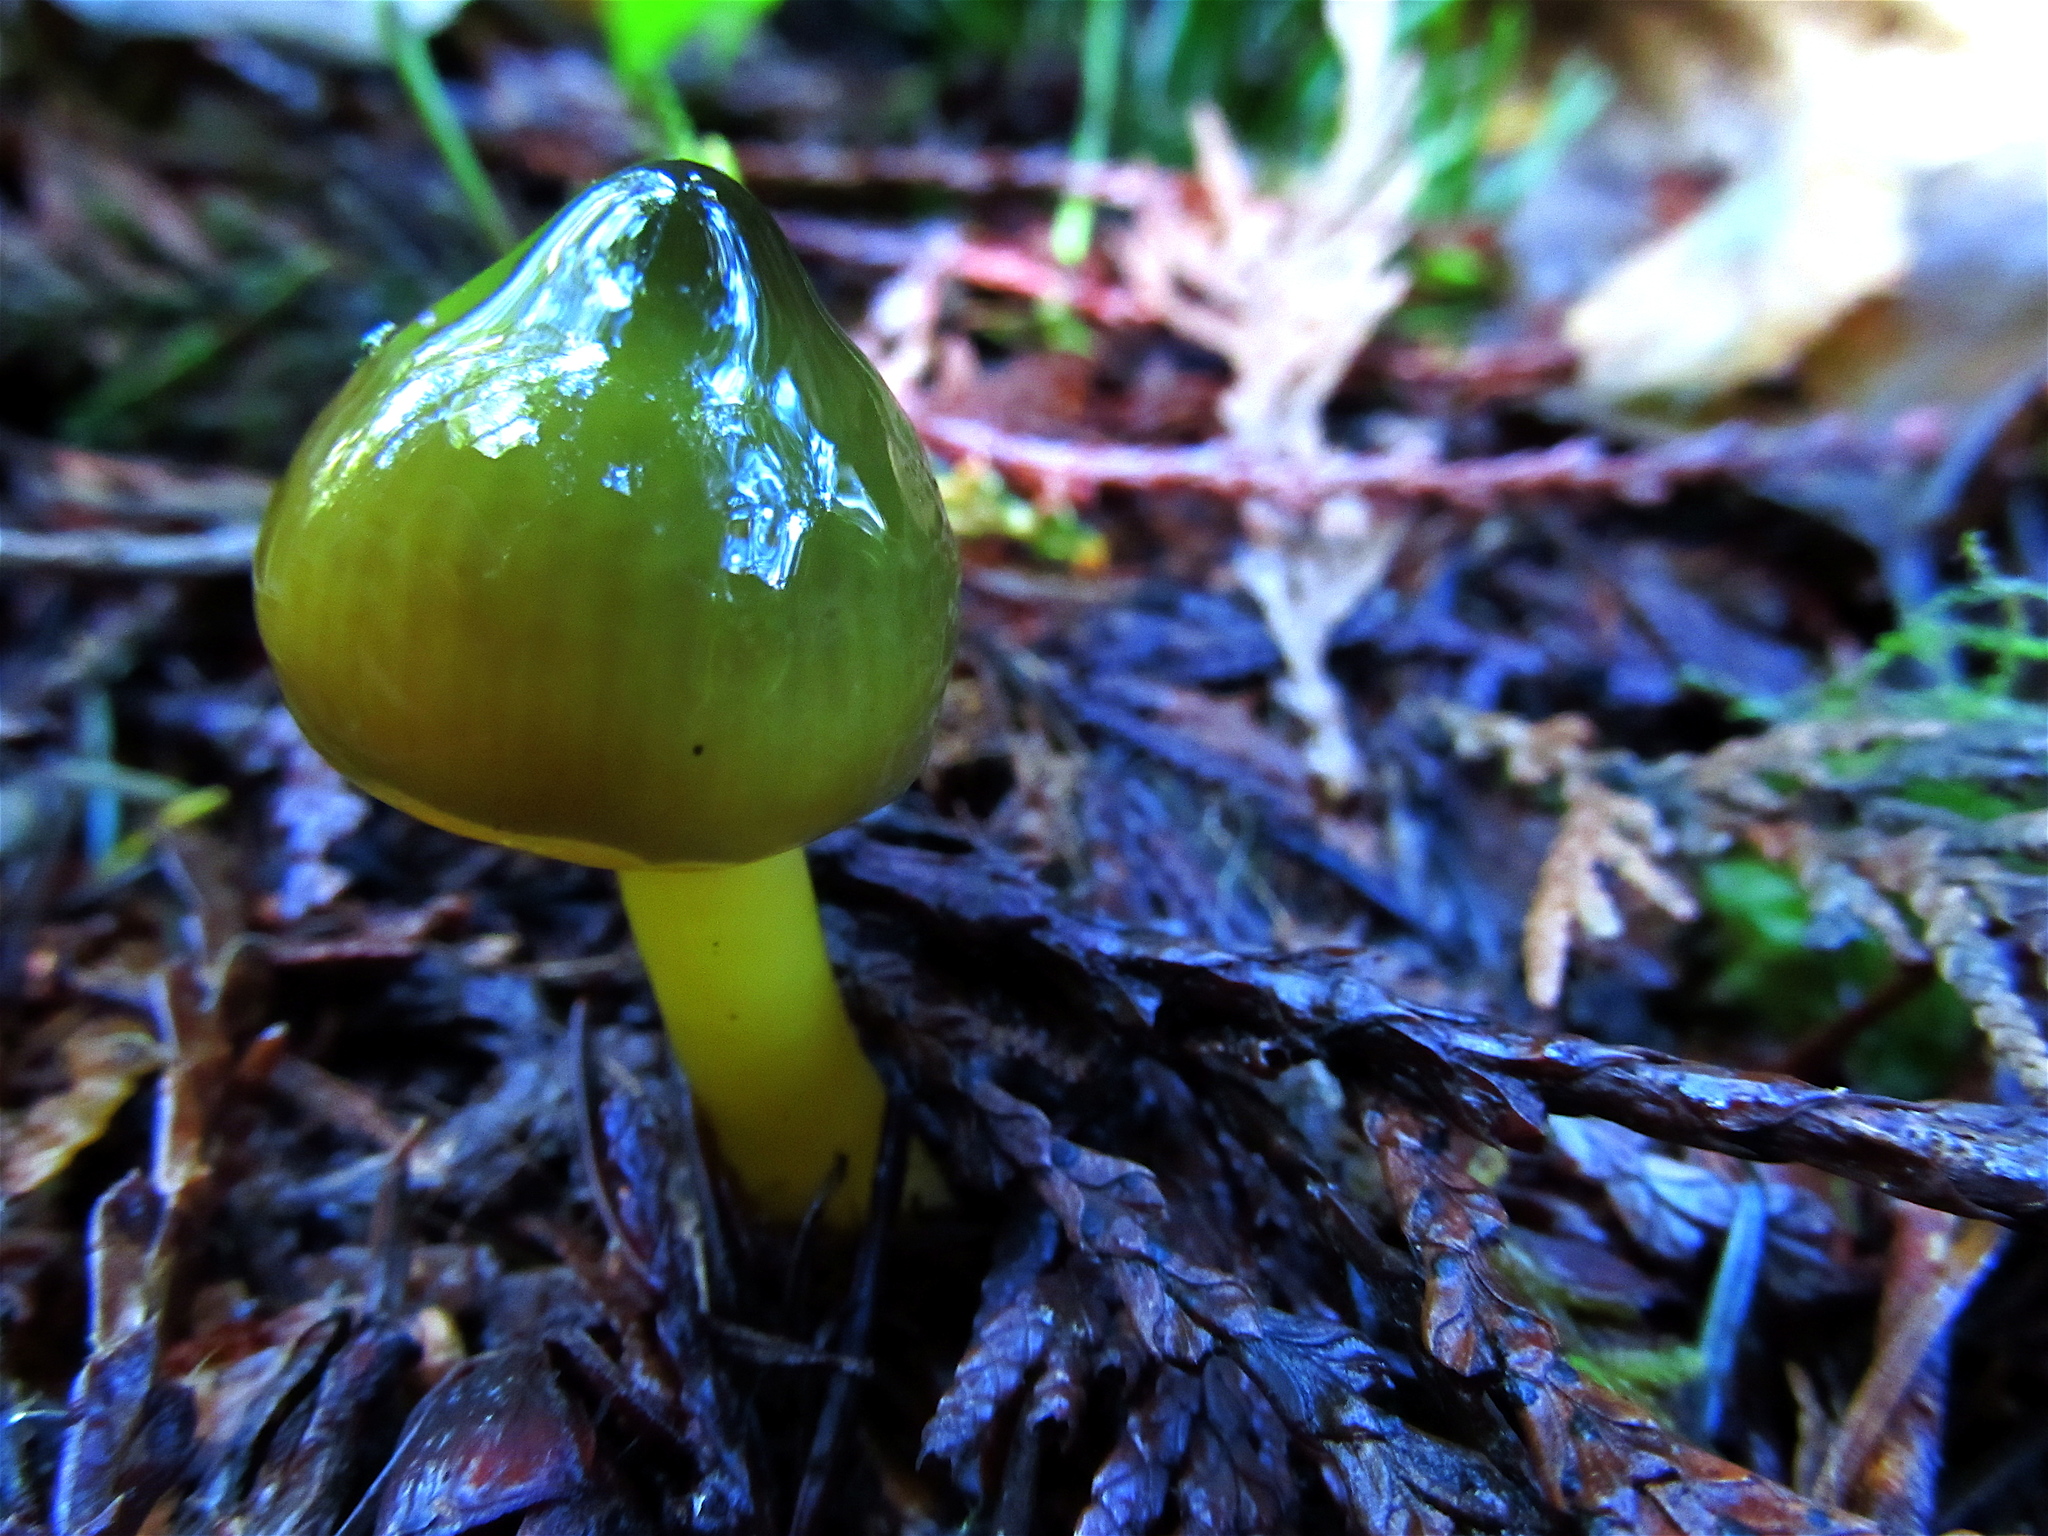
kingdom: Fungi
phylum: Basidiomycota
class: Agaricomycetes
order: Agaricales
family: Hygrophoraceae
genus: Gliophorus
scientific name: Gliophorus psittacinus
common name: Parrot wax-cap
